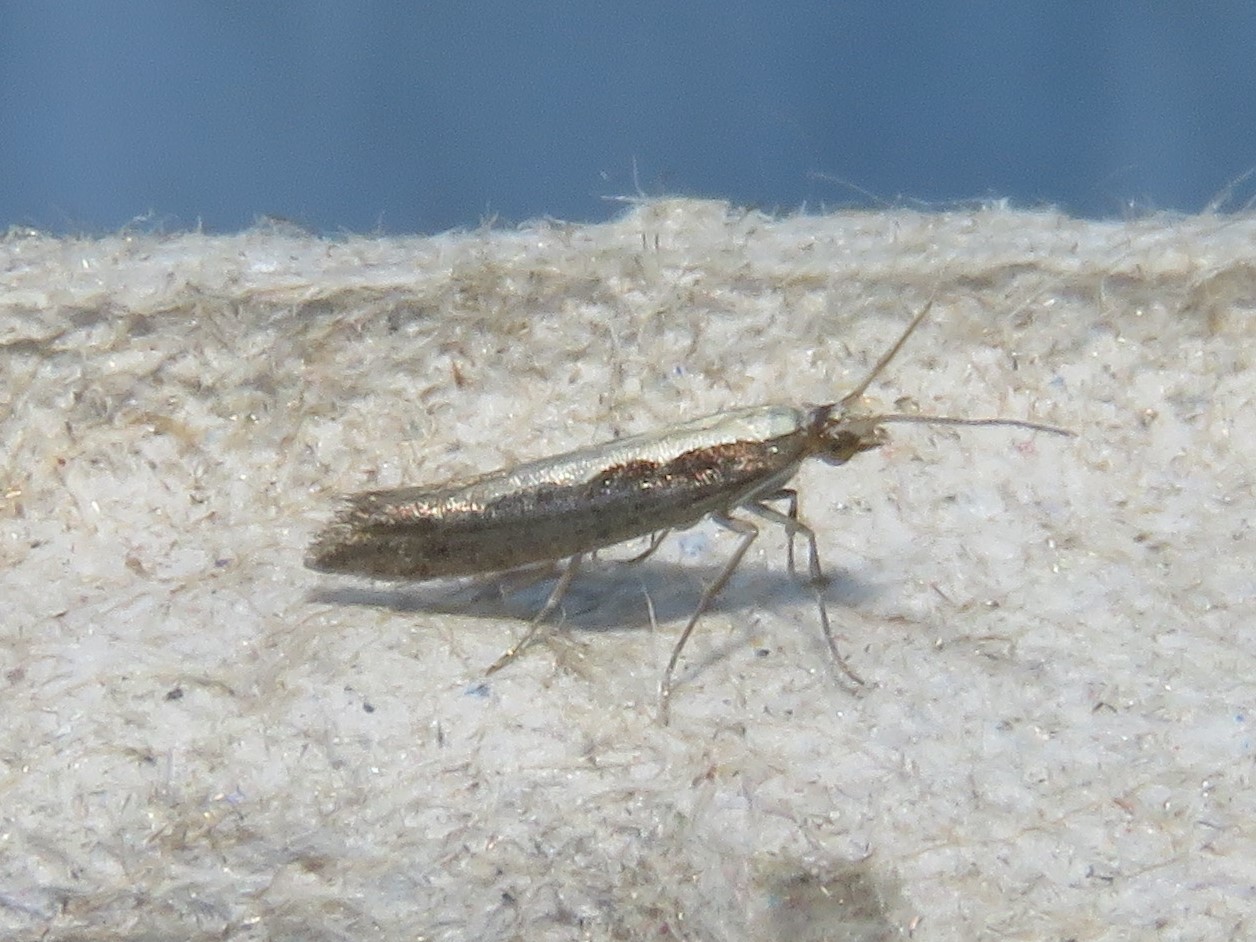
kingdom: Animalia
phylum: Arthropoda
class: Insecta
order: Lepidoptera
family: Plutellidae
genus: Plutella
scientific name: Plutella xylostella
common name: Diamond-back moth
